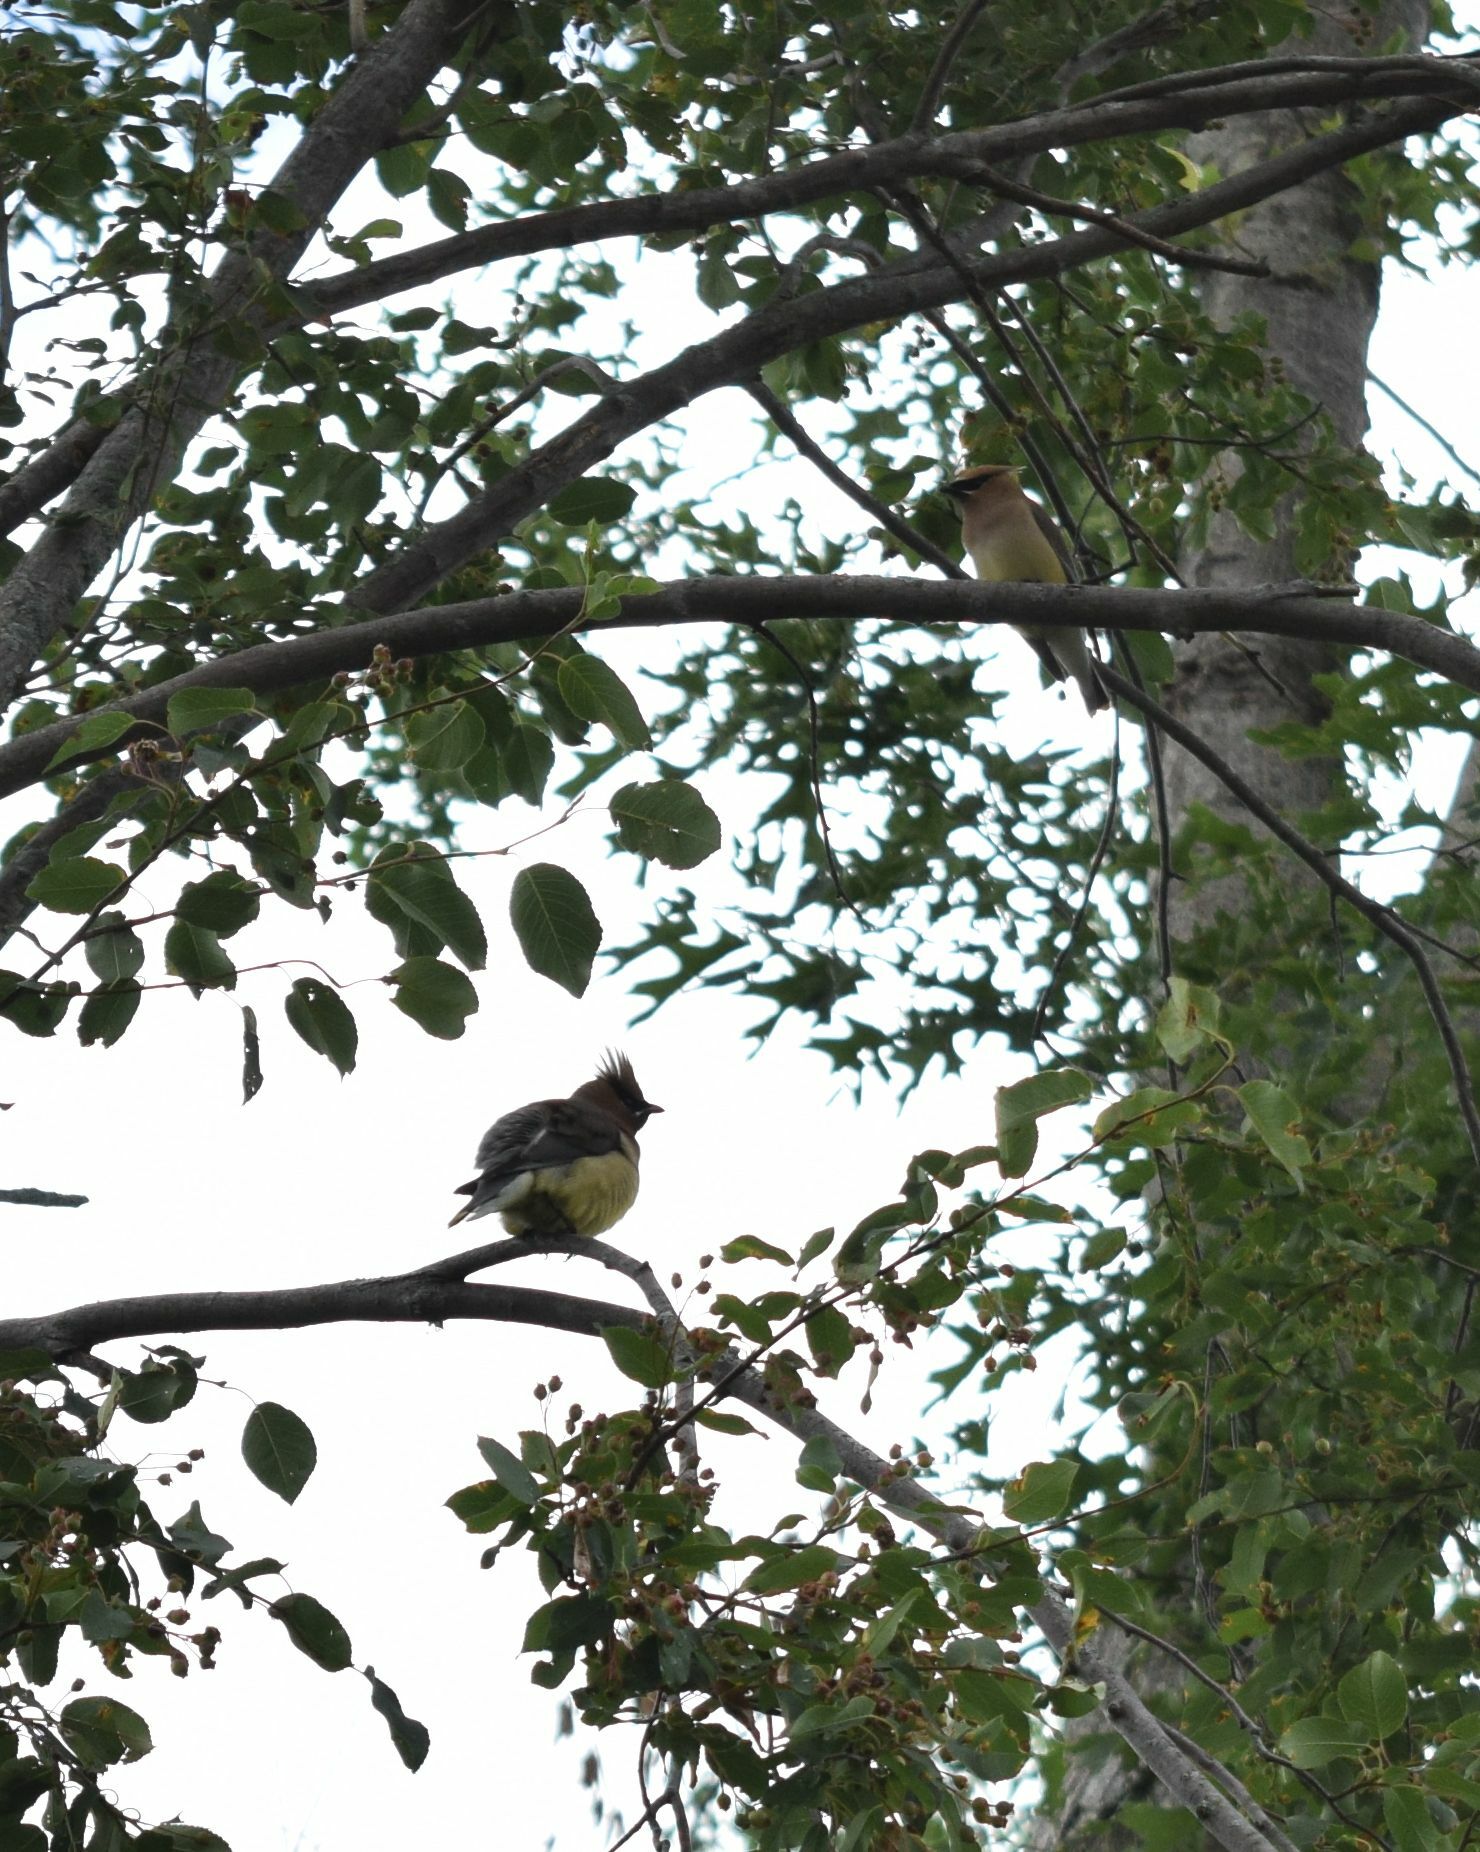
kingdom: Animalia
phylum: Chordata
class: Aves
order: Passeriformes
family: Bombycillidae
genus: Bombycilla
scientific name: Bombycilla cedrorum
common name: Cedar waxwing
